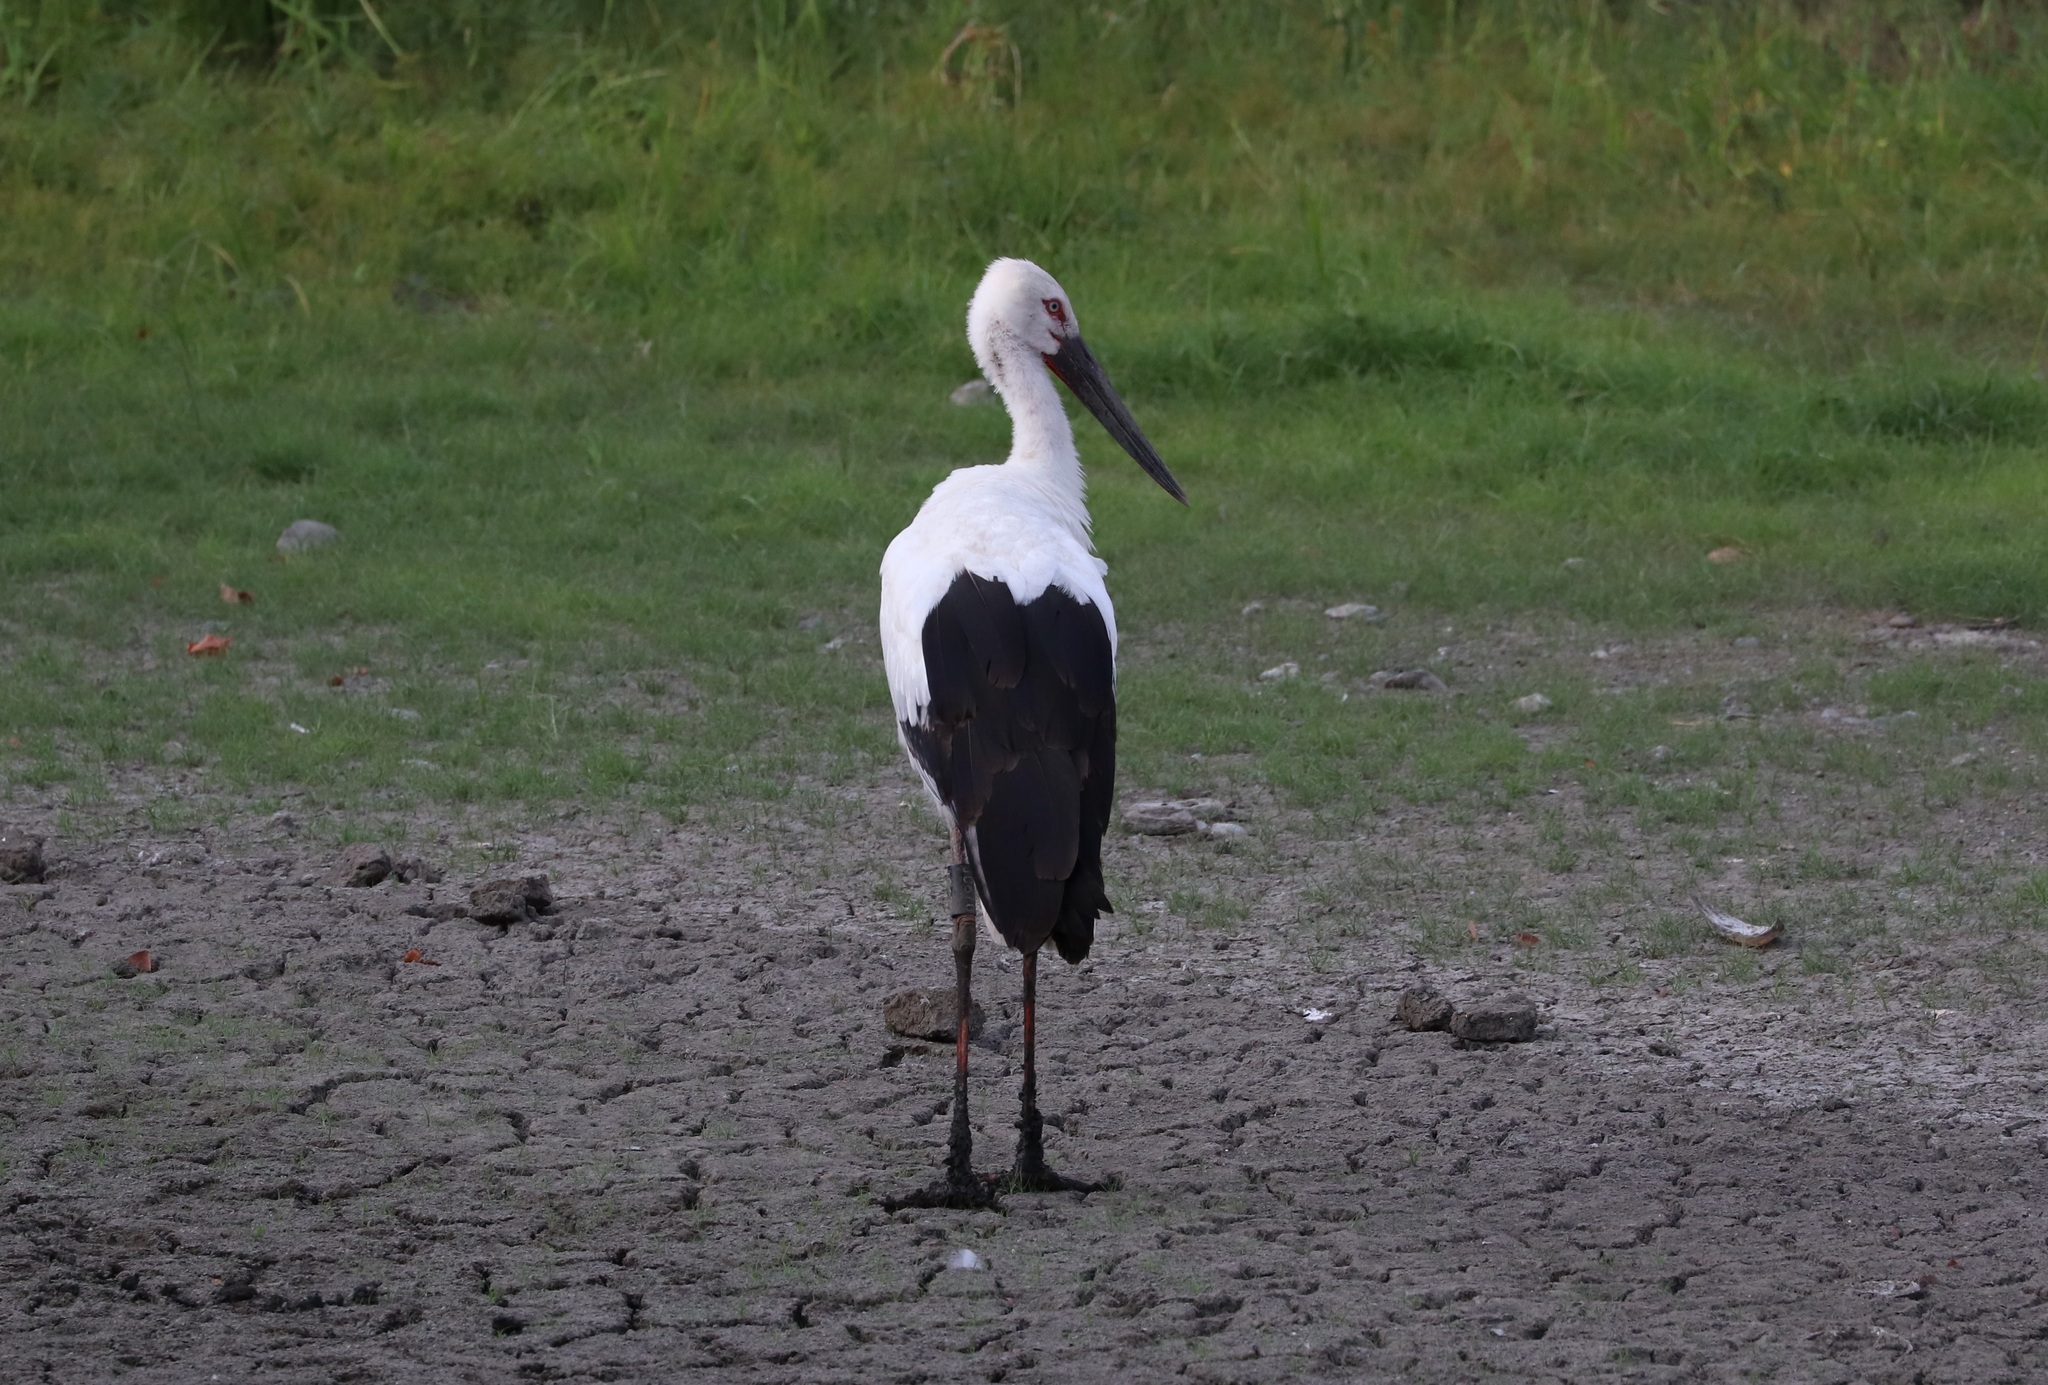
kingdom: Animalia
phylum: Chordata
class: Aves
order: Ciconiiformes
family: Ciconiidae
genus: Ciconia
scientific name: Ciconia boyciana
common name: Oriental stork
